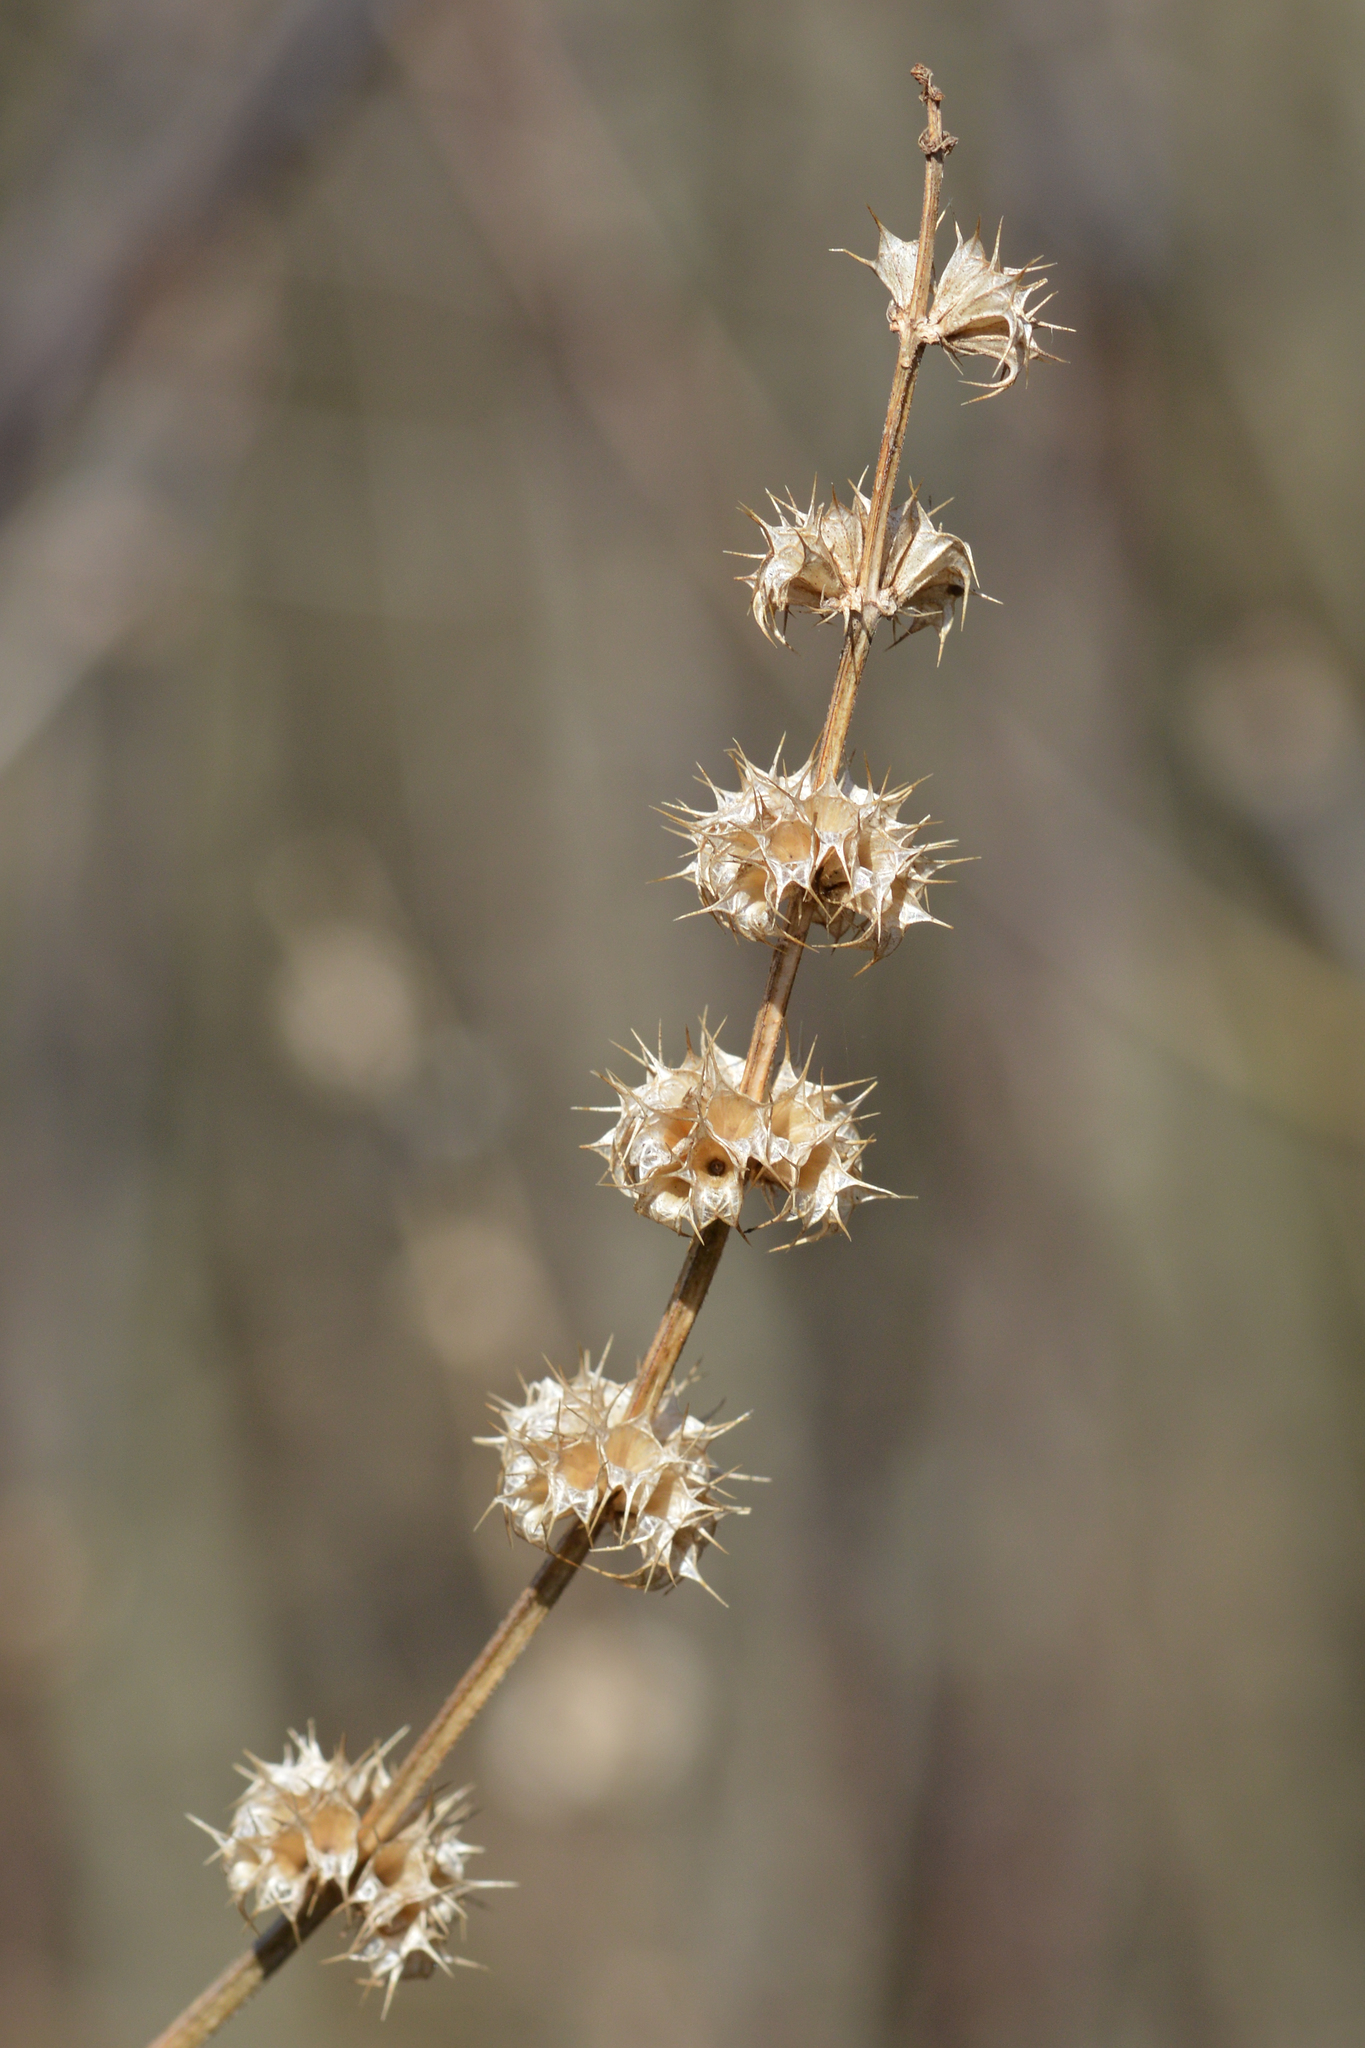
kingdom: Plantae
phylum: Tracheophyta
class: Magnoliopsida
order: Lamiales
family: Lamiaceae
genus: Leonurus
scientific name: Leonurus cardiaca
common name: Motherwort
